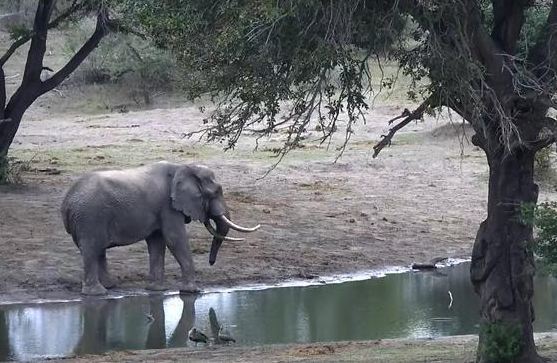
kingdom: Animalia
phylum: Chordata
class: Mammalia
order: Proboscidea
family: Elephantidae
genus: Loxodonta
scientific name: Loxodonta africana
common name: African elephant
